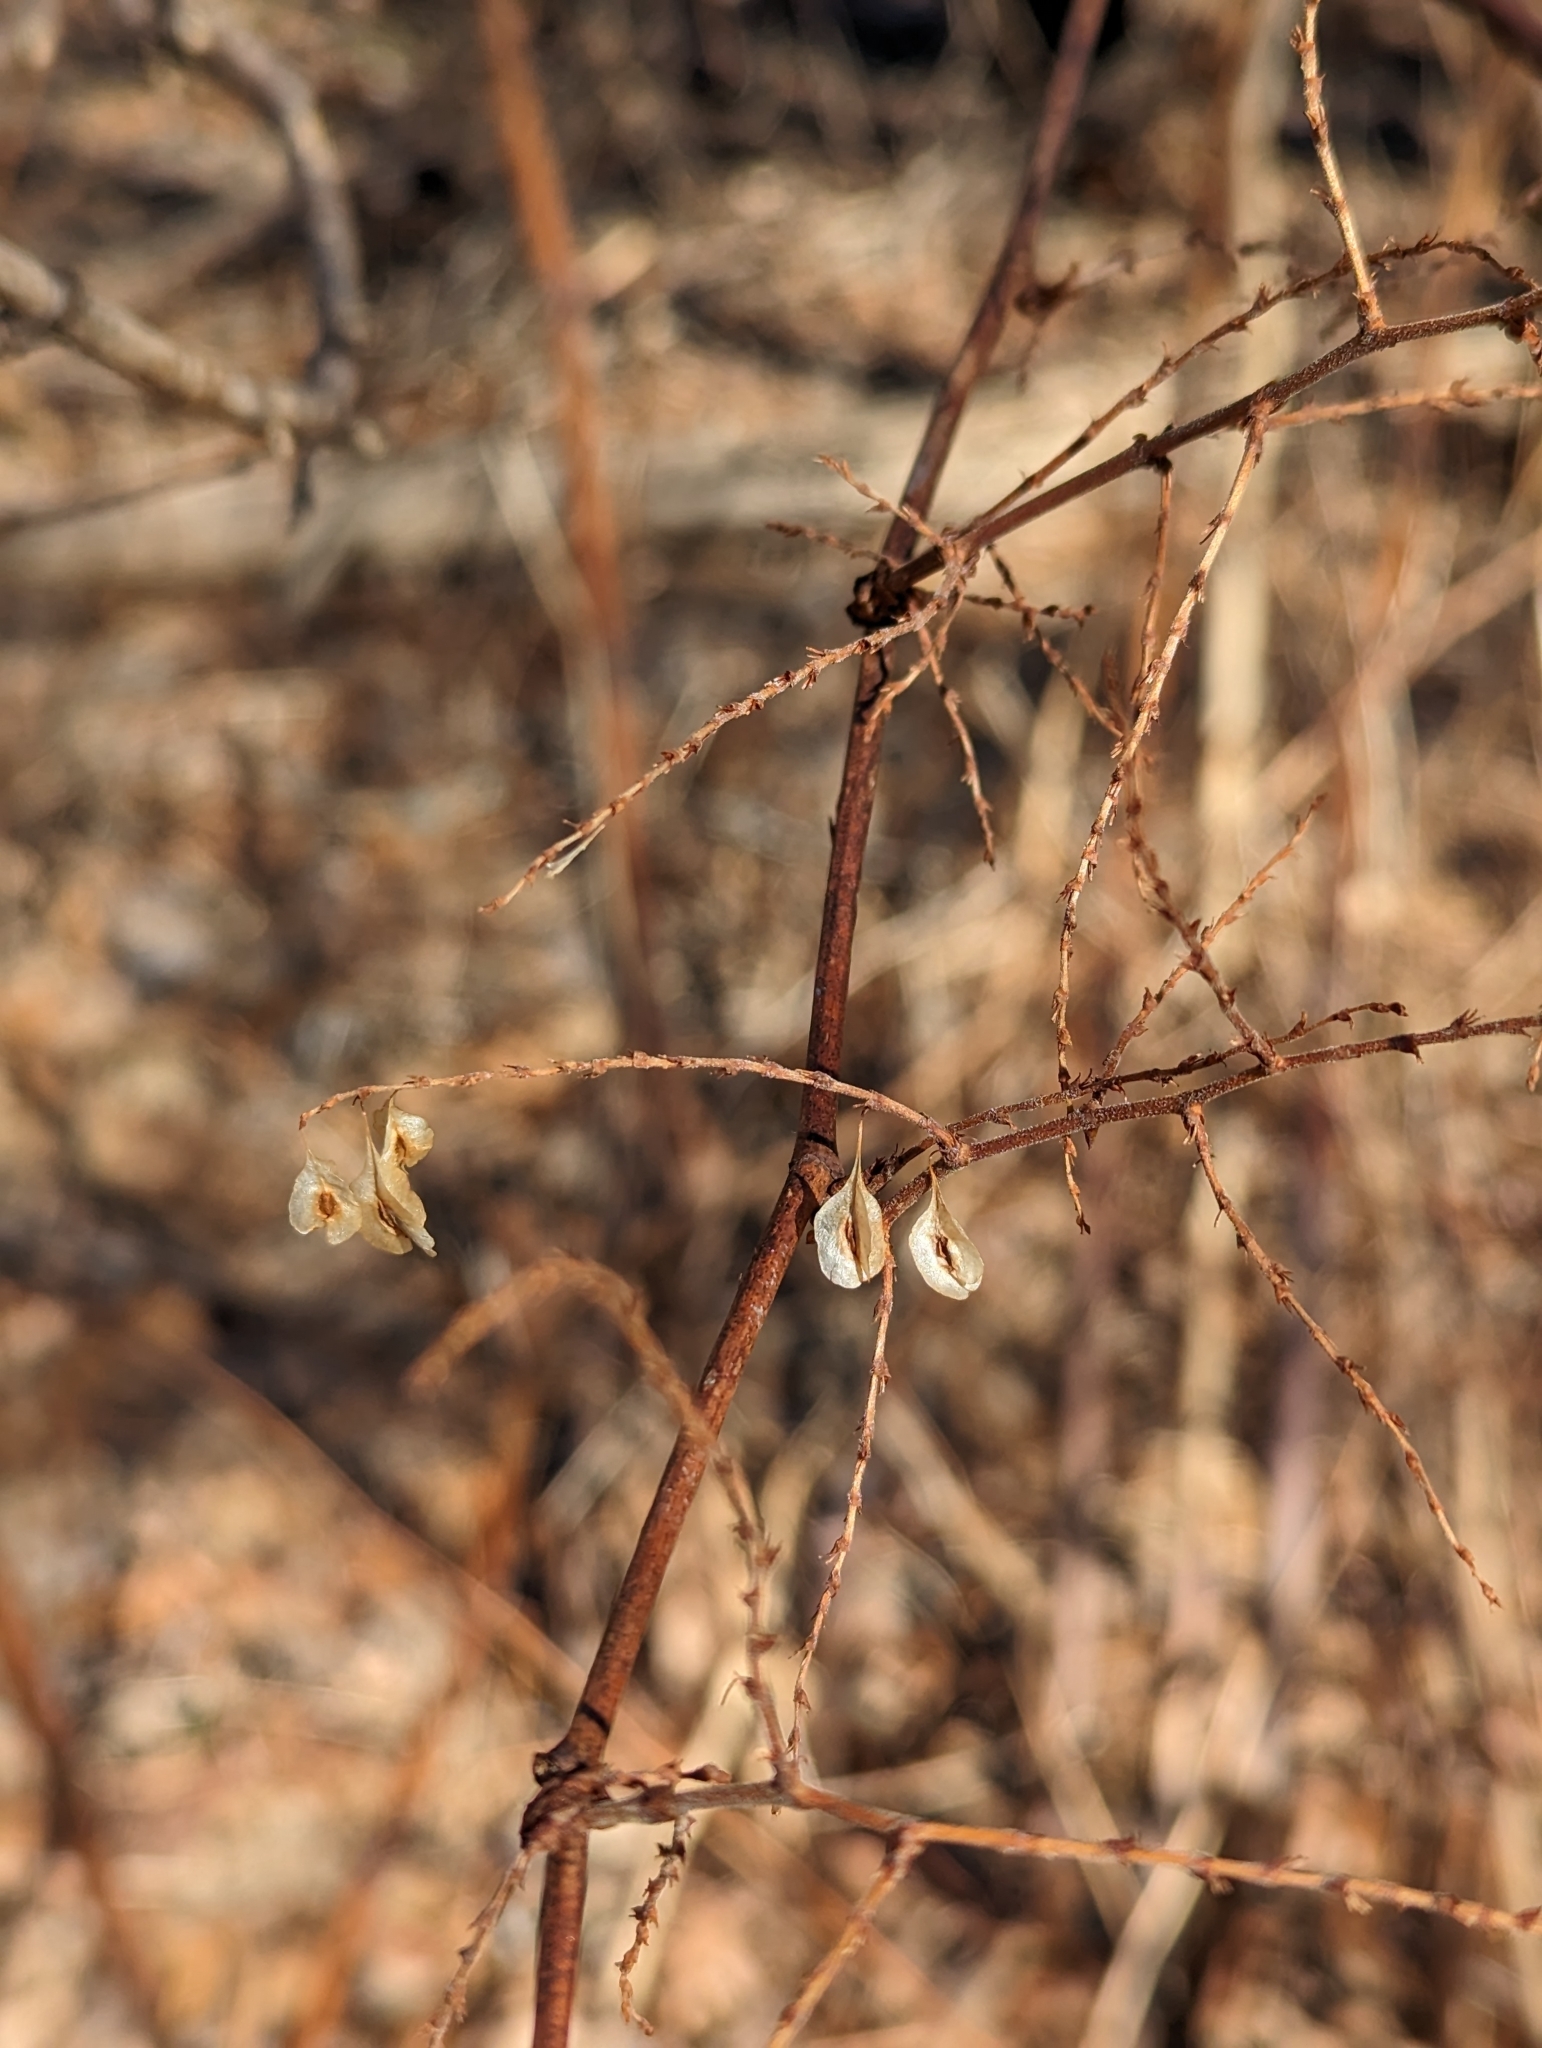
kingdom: Plantae
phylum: Tracheophyta
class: Magnoliopsida
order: Caryophyllales
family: Polygonaceae
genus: Reynoutria
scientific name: Reynoutria japonica
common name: Japanese knotweed
